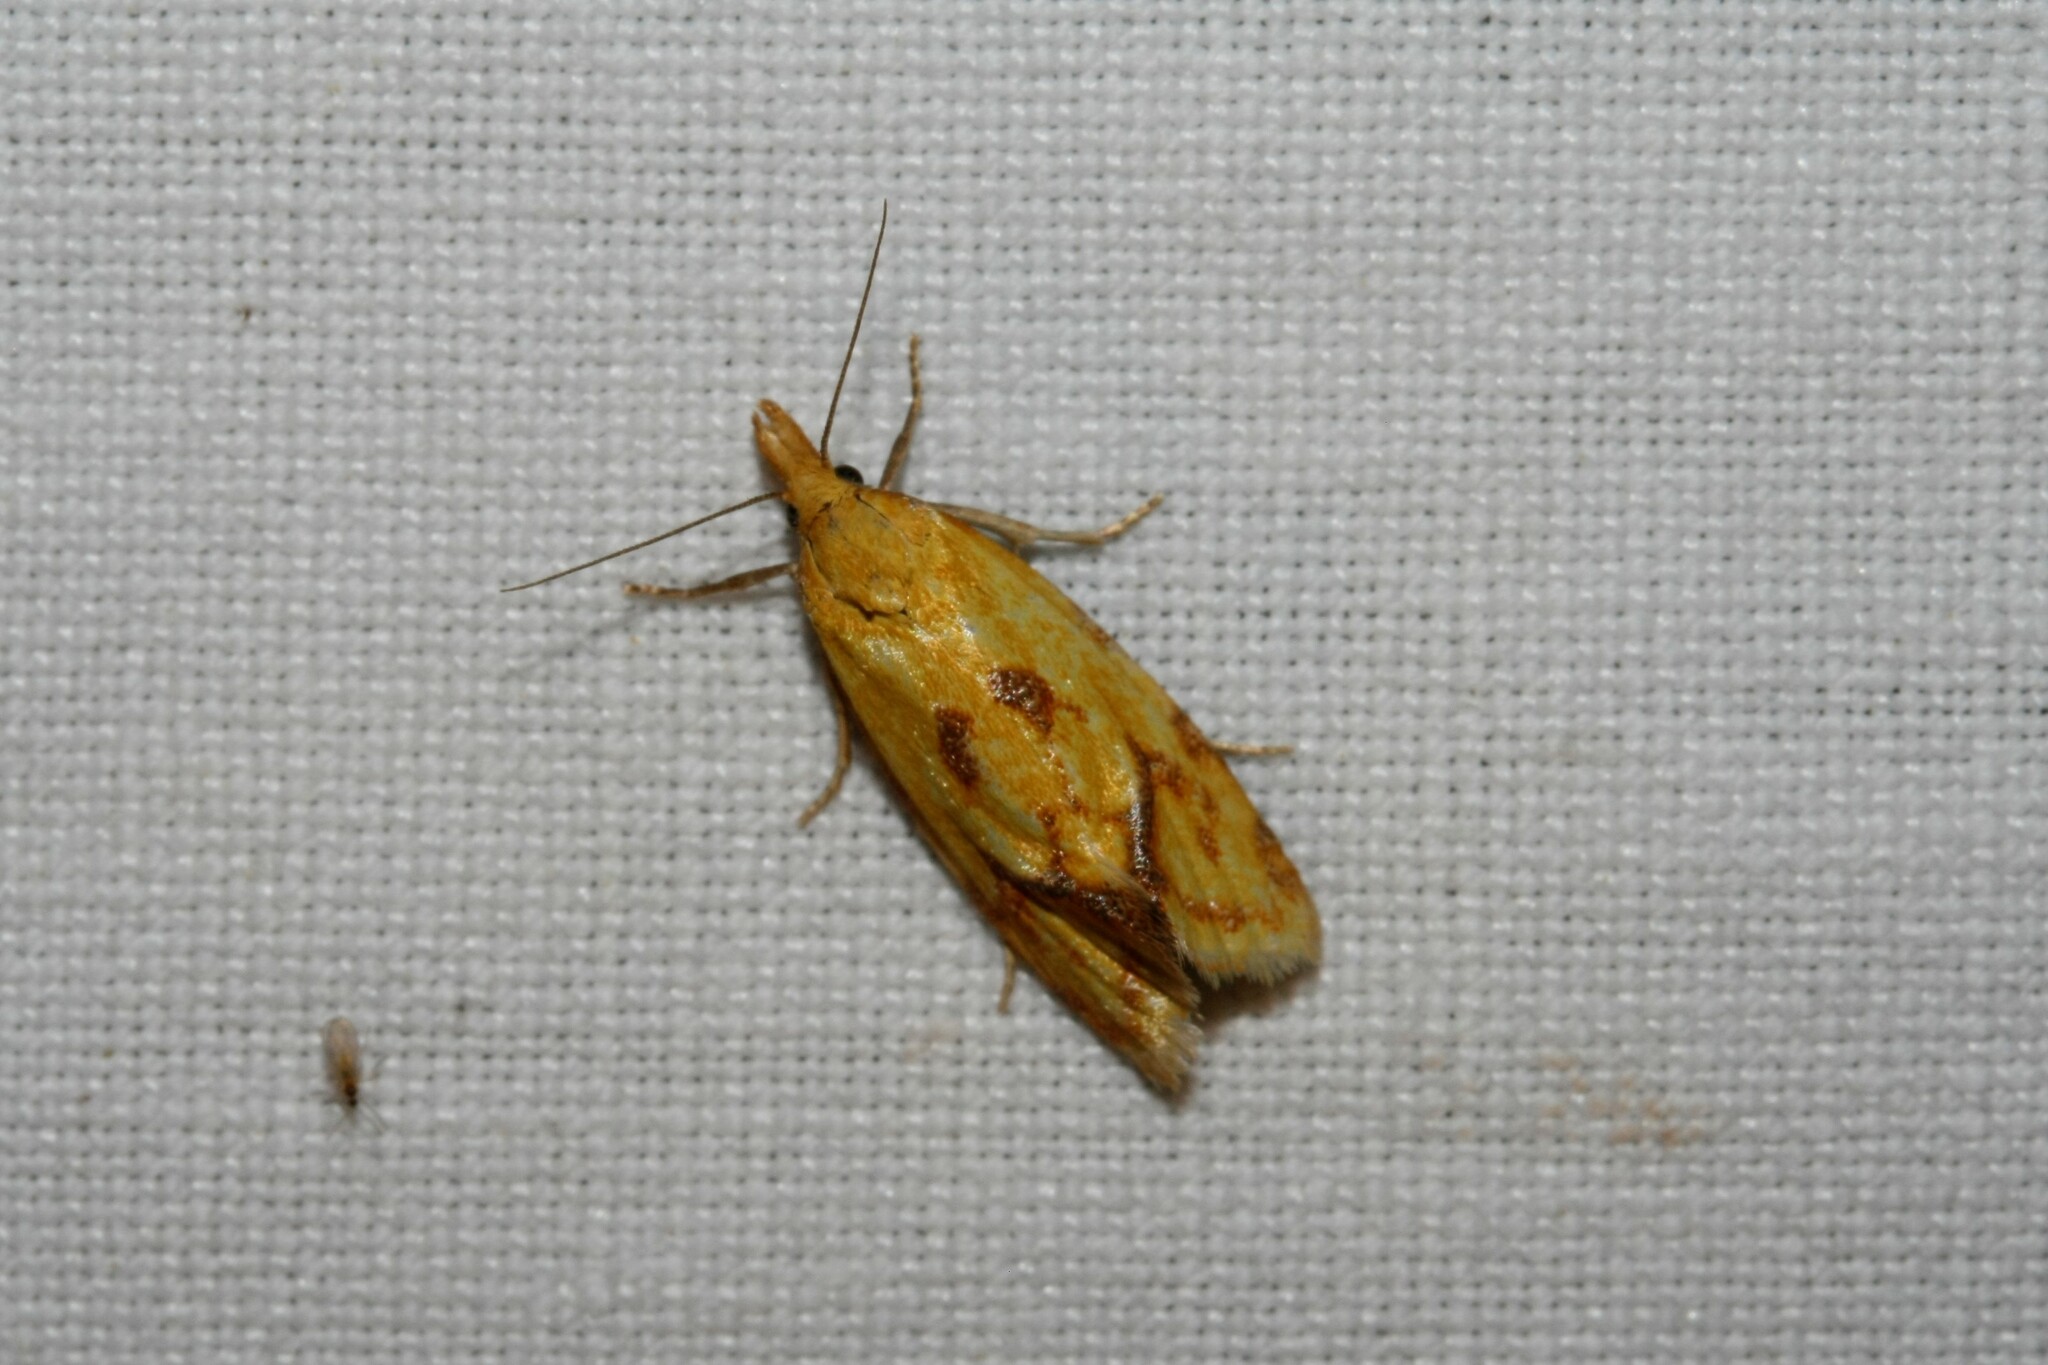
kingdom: Animalia
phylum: Arthropoda
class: Insecta
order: Lepidoptera
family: Tortricidae
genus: Agapeta
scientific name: Agapeta hamana
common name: Common yellow conch
